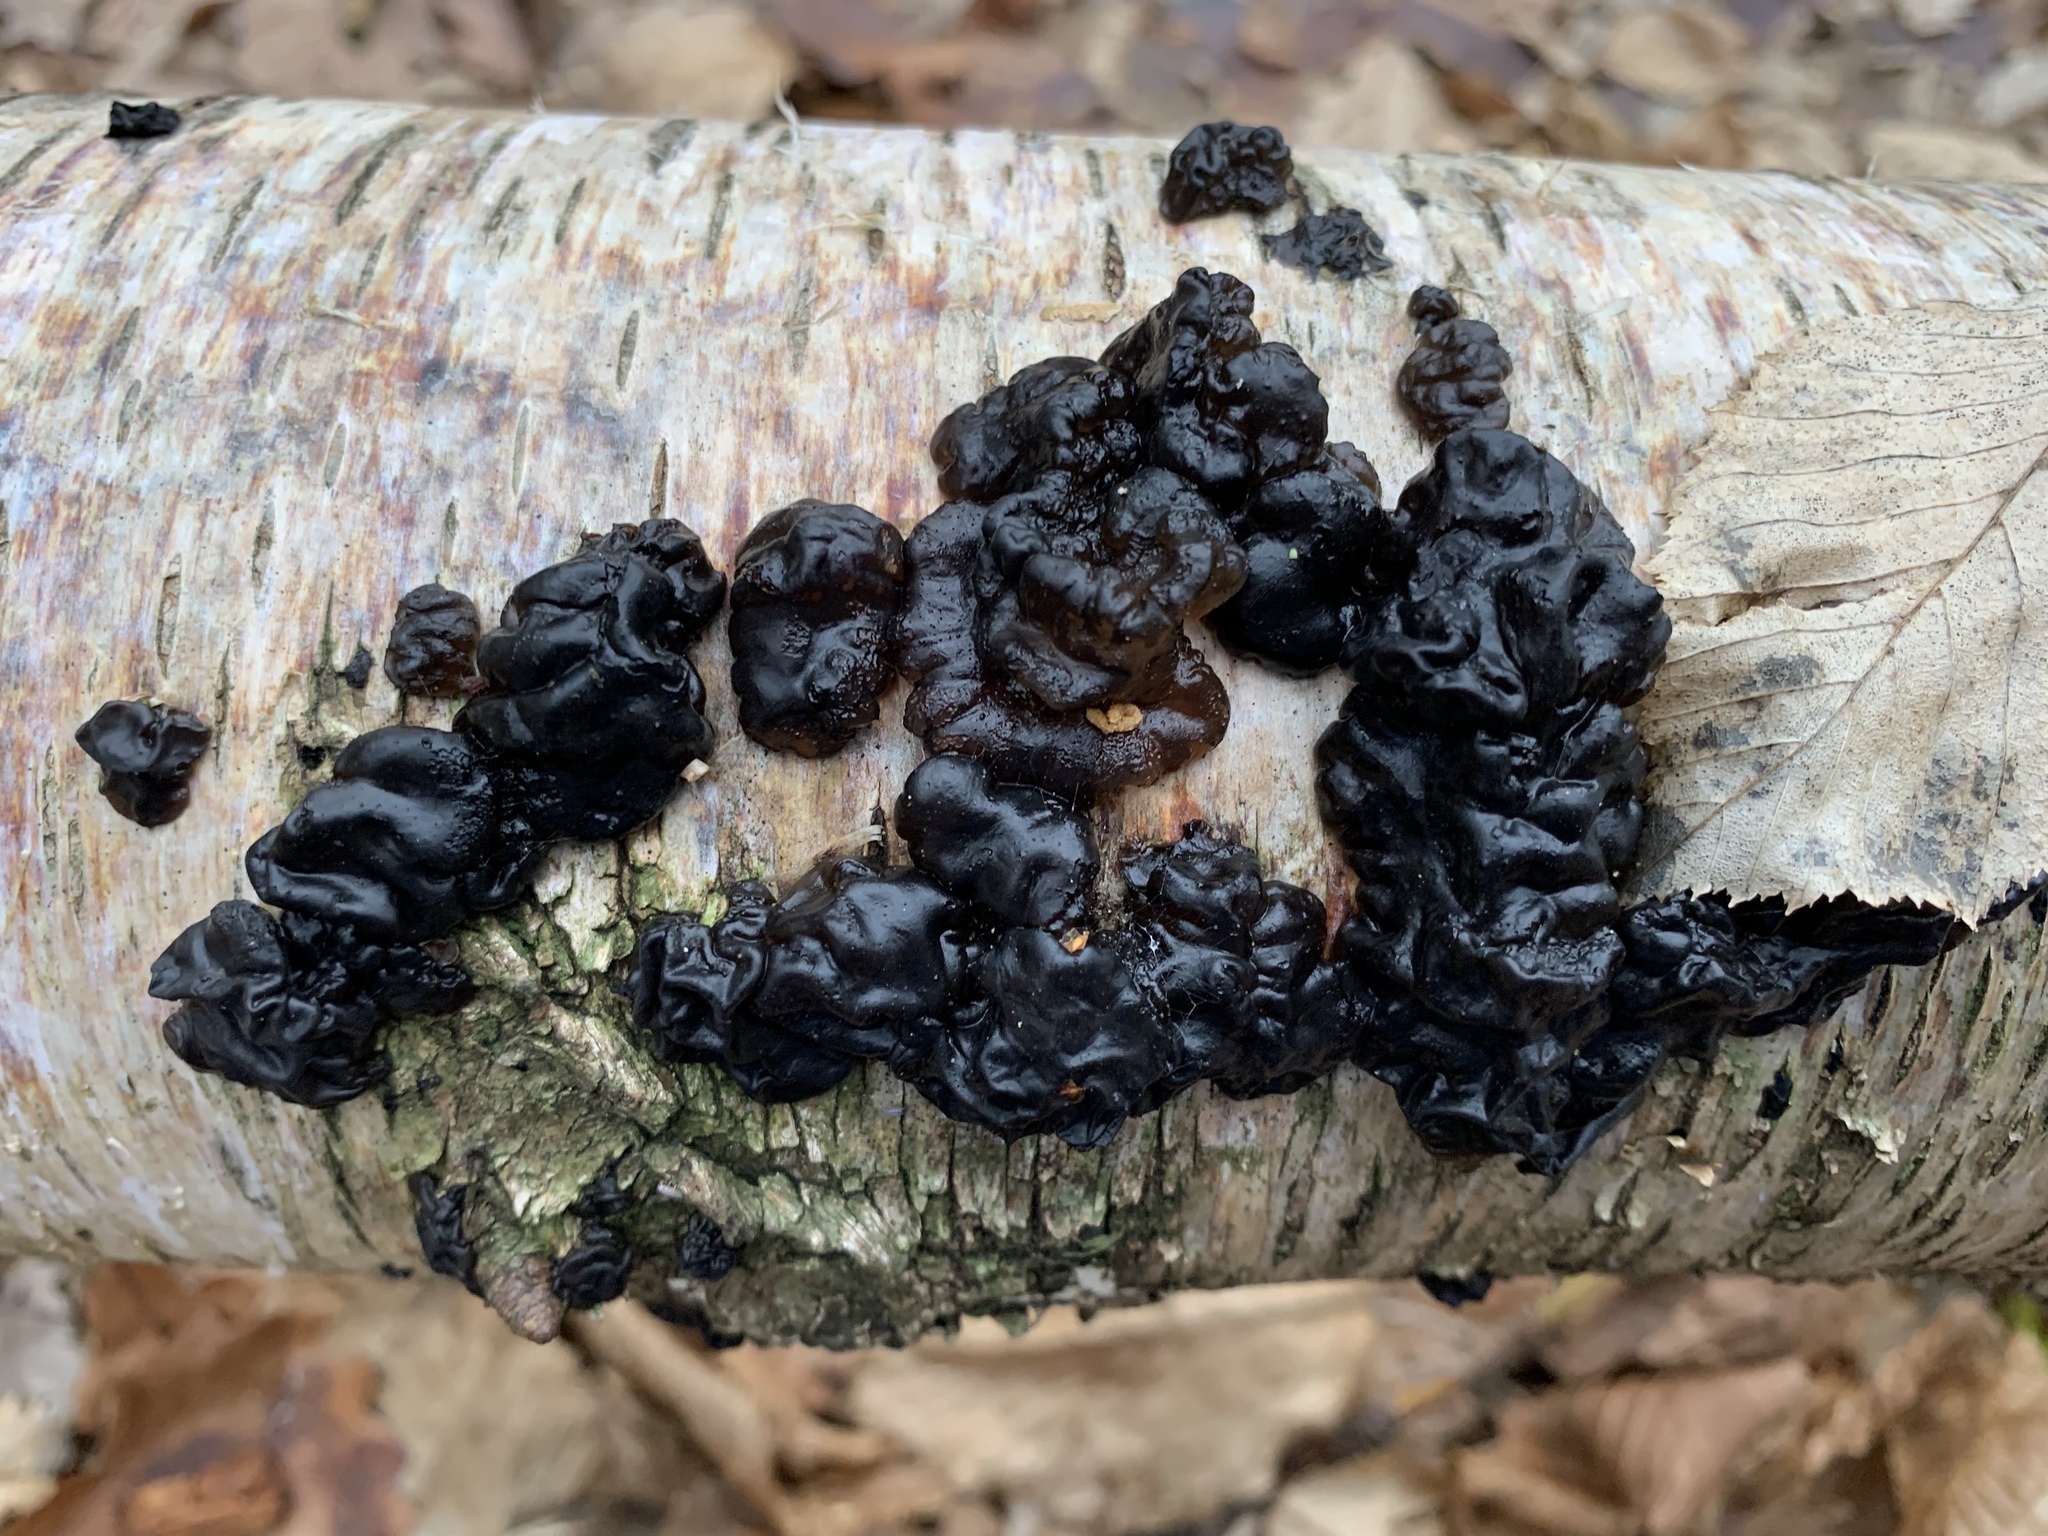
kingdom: Fungi
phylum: Basidiomycota
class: Agaricomycetes
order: Auriculariales
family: Auriculariaceae
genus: Exidia
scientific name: Exidia glandulosa
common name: Witches' butter
